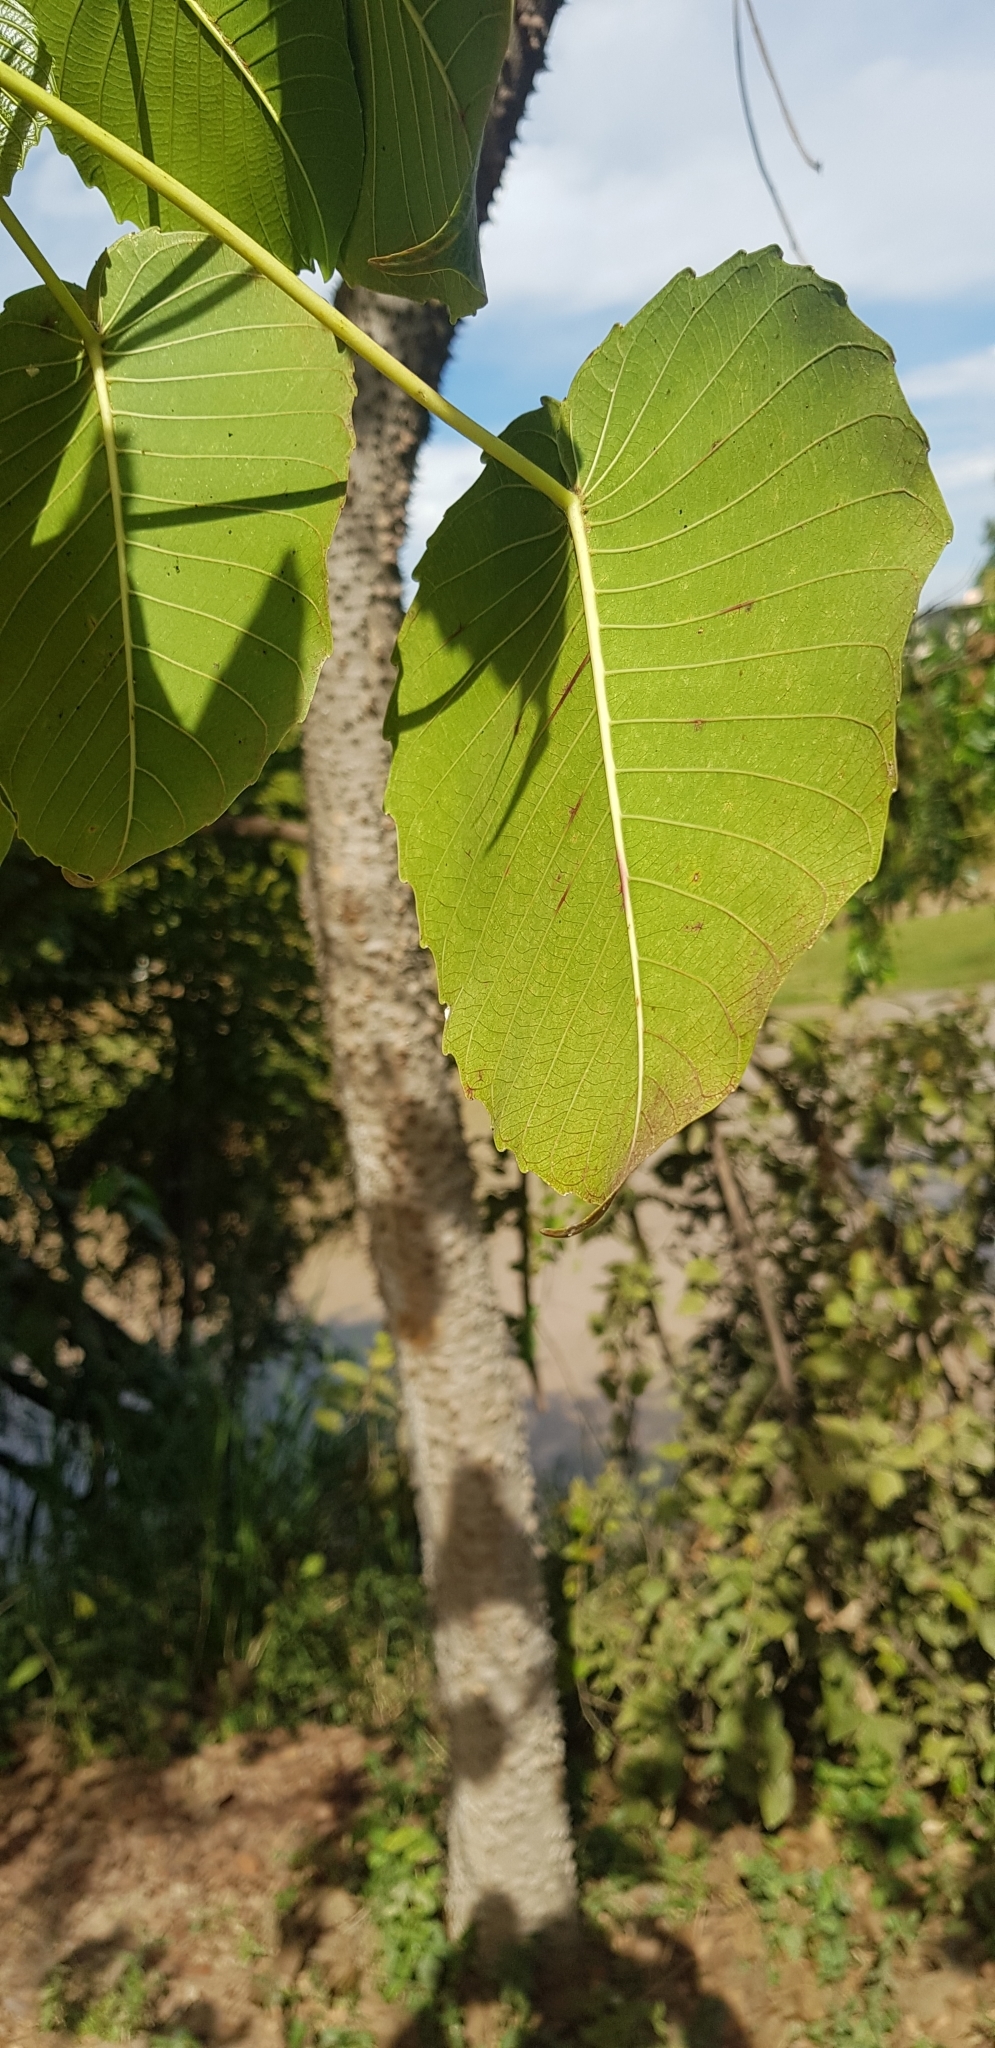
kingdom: Plantae
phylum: Tracheophyta
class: Magnoliopsida
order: Malpighiales
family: Euphorbiaceae
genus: Hura
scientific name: Hura polyandra
